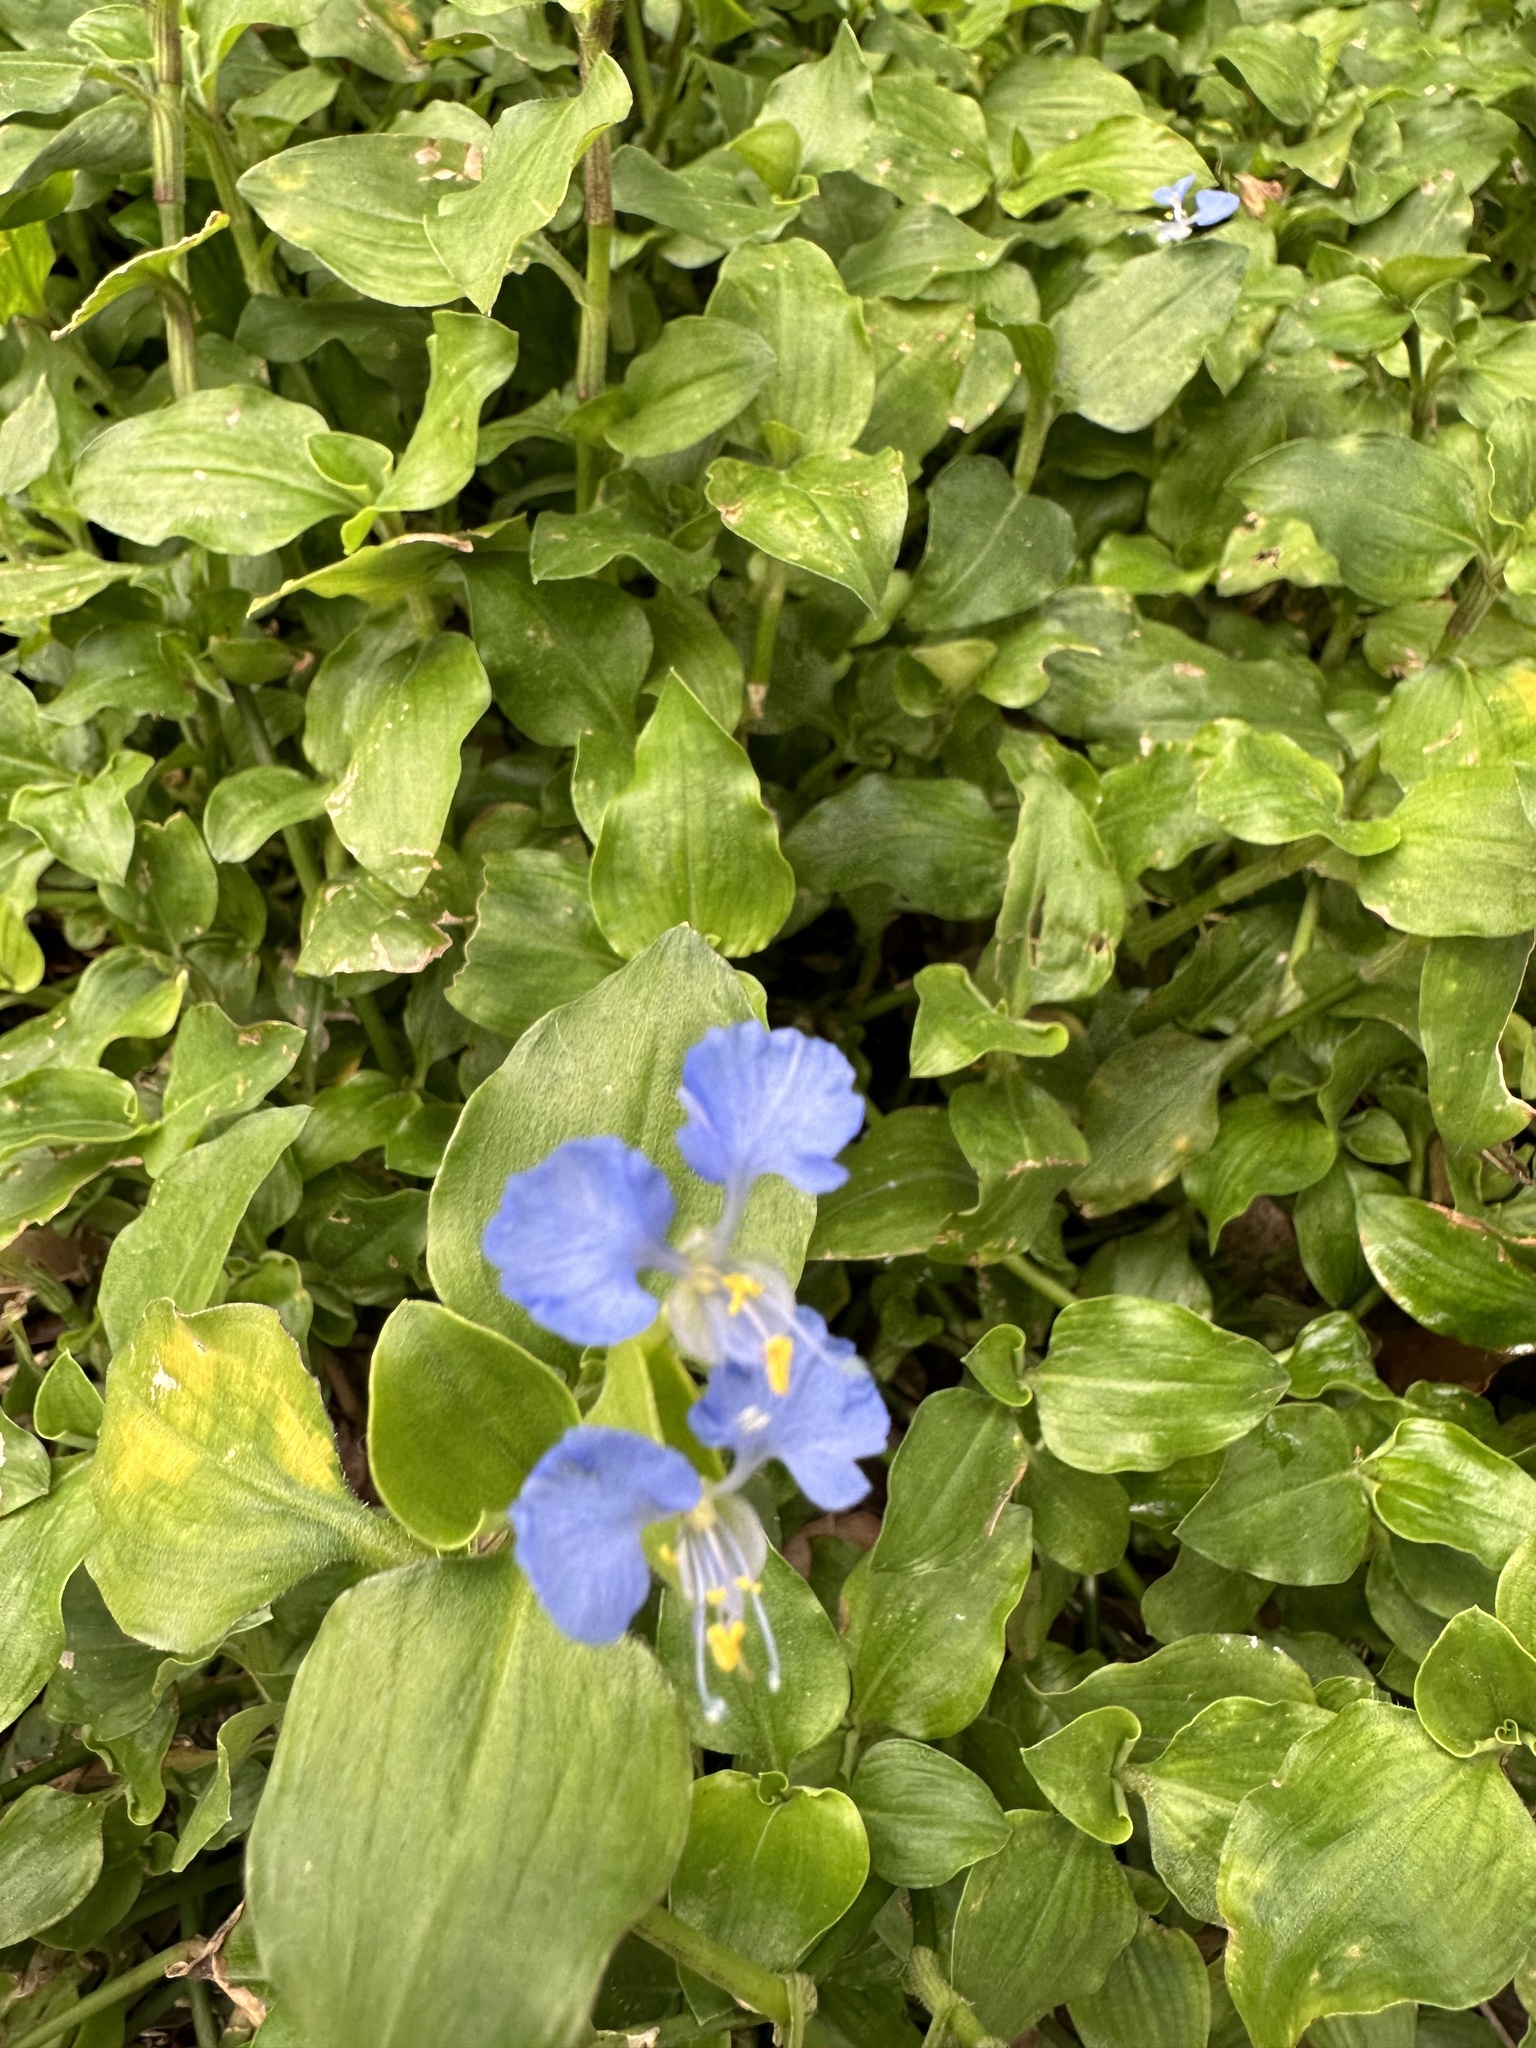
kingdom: Plantae
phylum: Tracheophyta
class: Liliopsida
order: Commelinales
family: Commelinaceae
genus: Commelina
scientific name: Commelina benghalensis
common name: Jio
